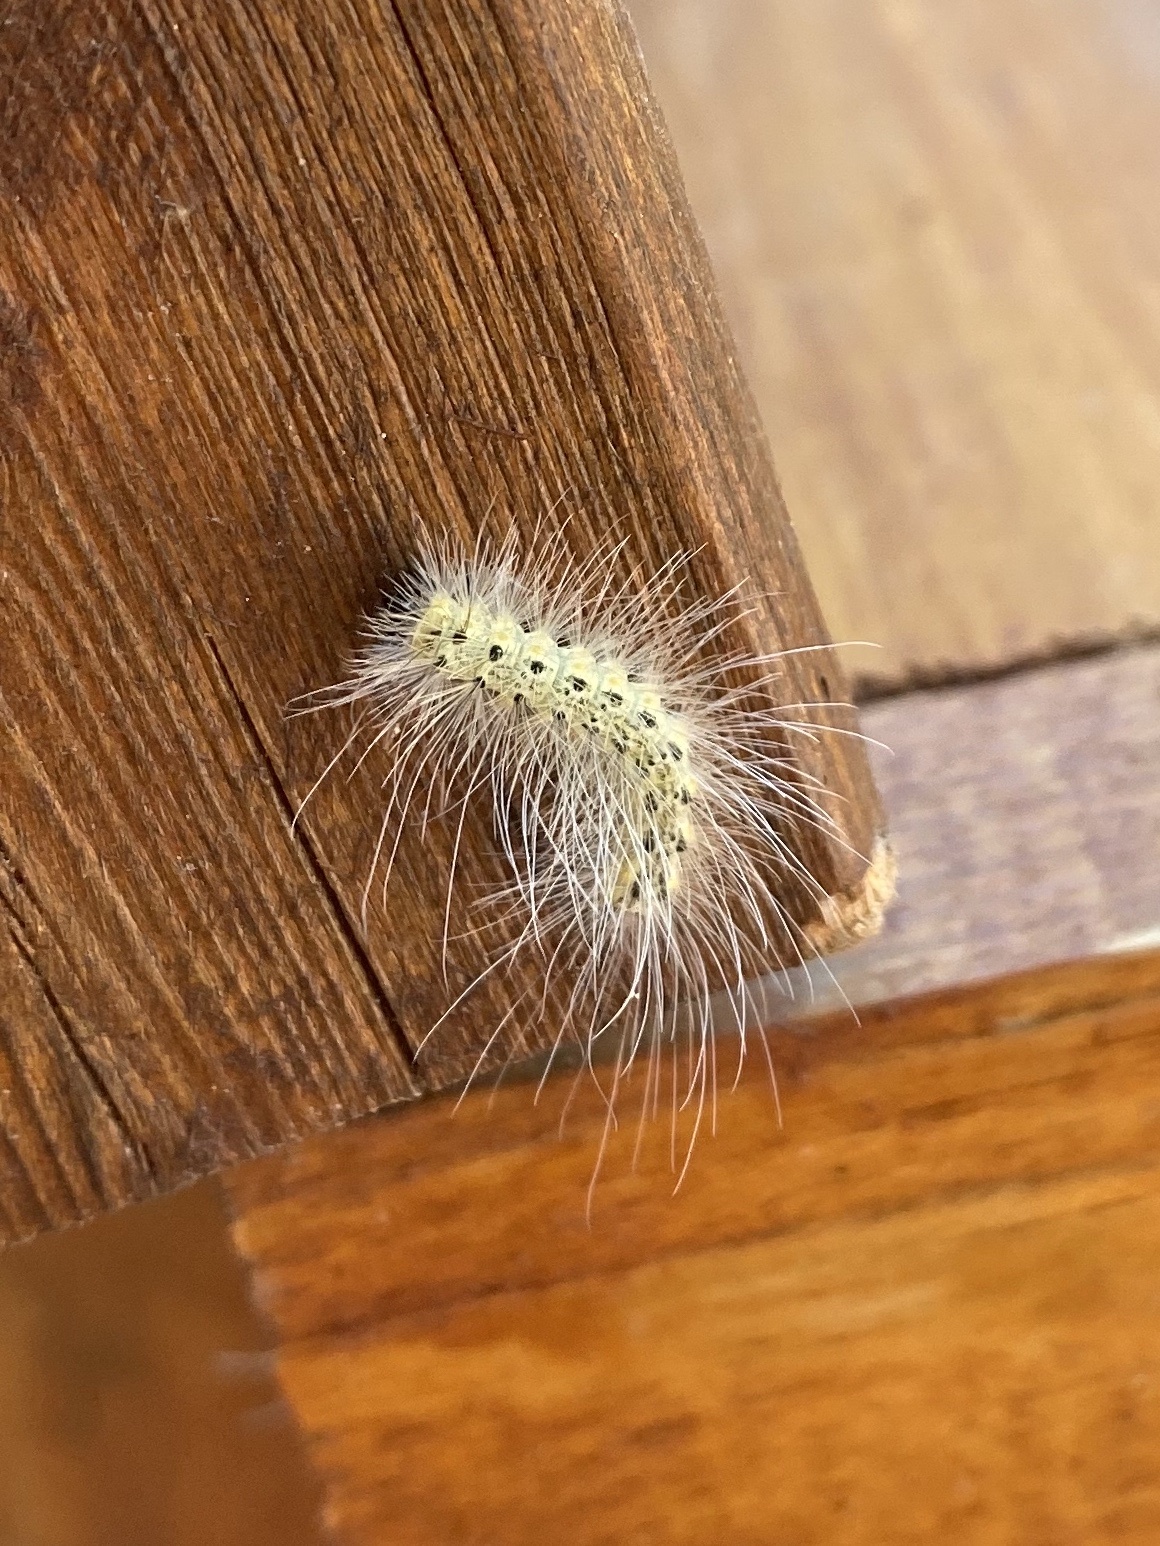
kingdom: Animalia
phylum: Arthropoda
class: Insecta
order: Lepidoptera
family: Erebidae
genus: Hyphantria
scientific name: Hyphantria cunea
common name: American white moth
